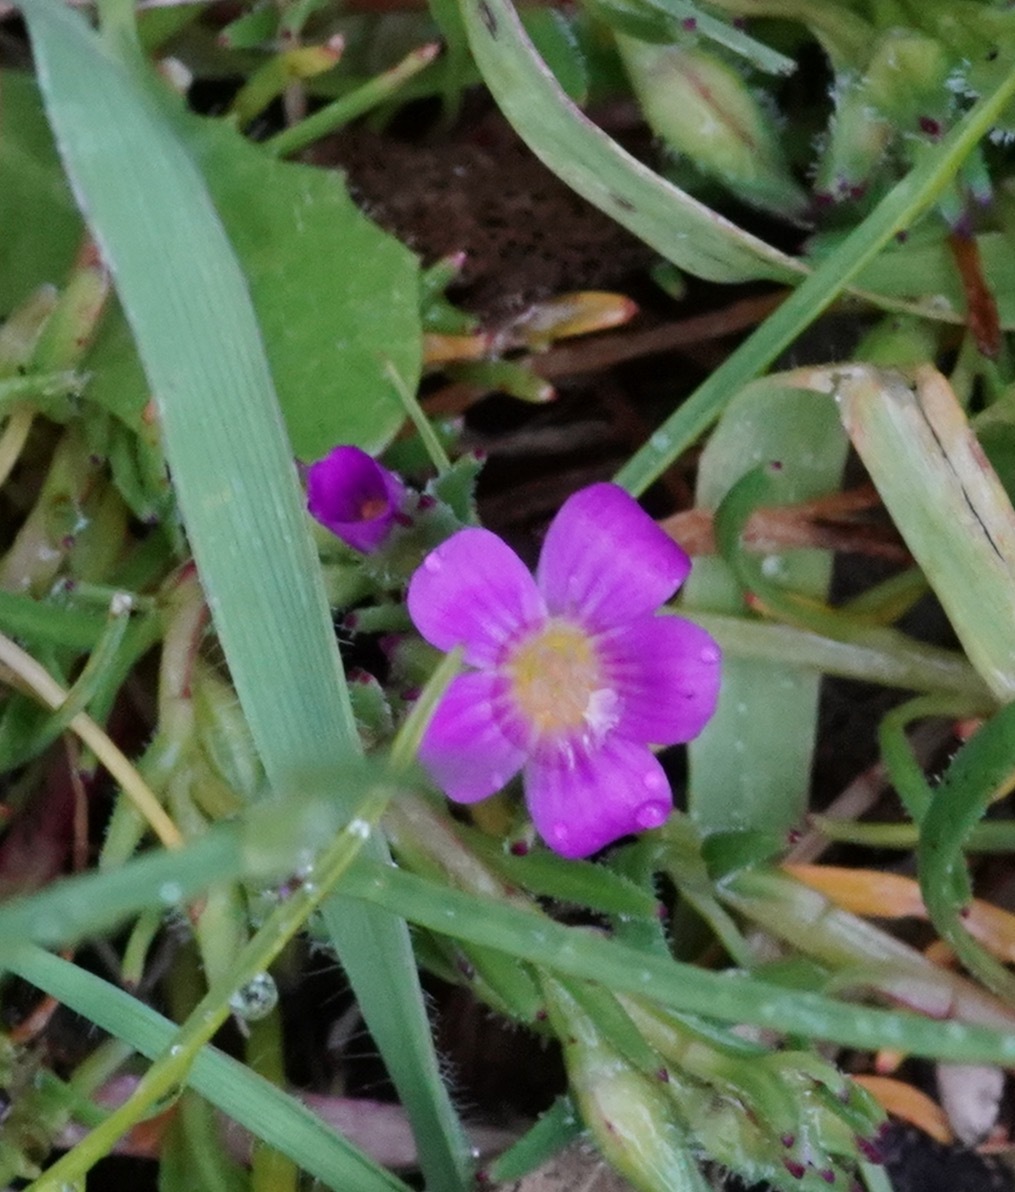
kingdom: Plantae
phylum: Tracheophyta
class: Magnoliopsida
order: Caryophyllales
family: Montiaceae
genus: Calandrinia
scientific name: Calandrinia menziesii
